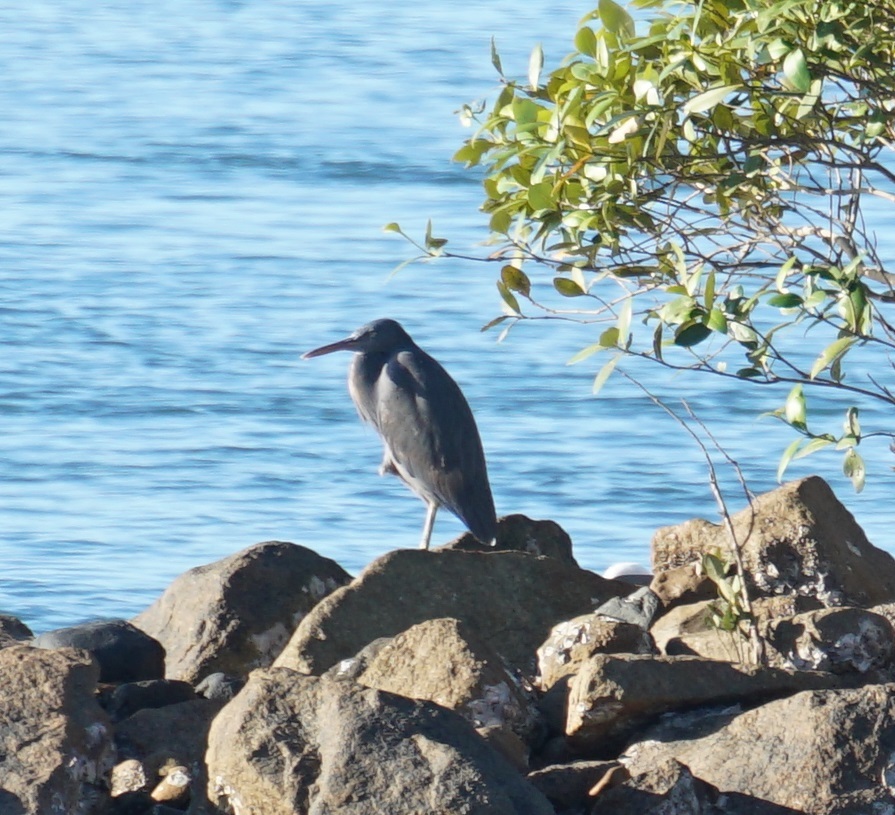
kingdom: Animalia
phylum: Chordata
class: Aves
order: Pelecaniformes
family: Ardeidae
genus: Egretta
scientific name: Egretta sacra
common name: Pacific reef heron
